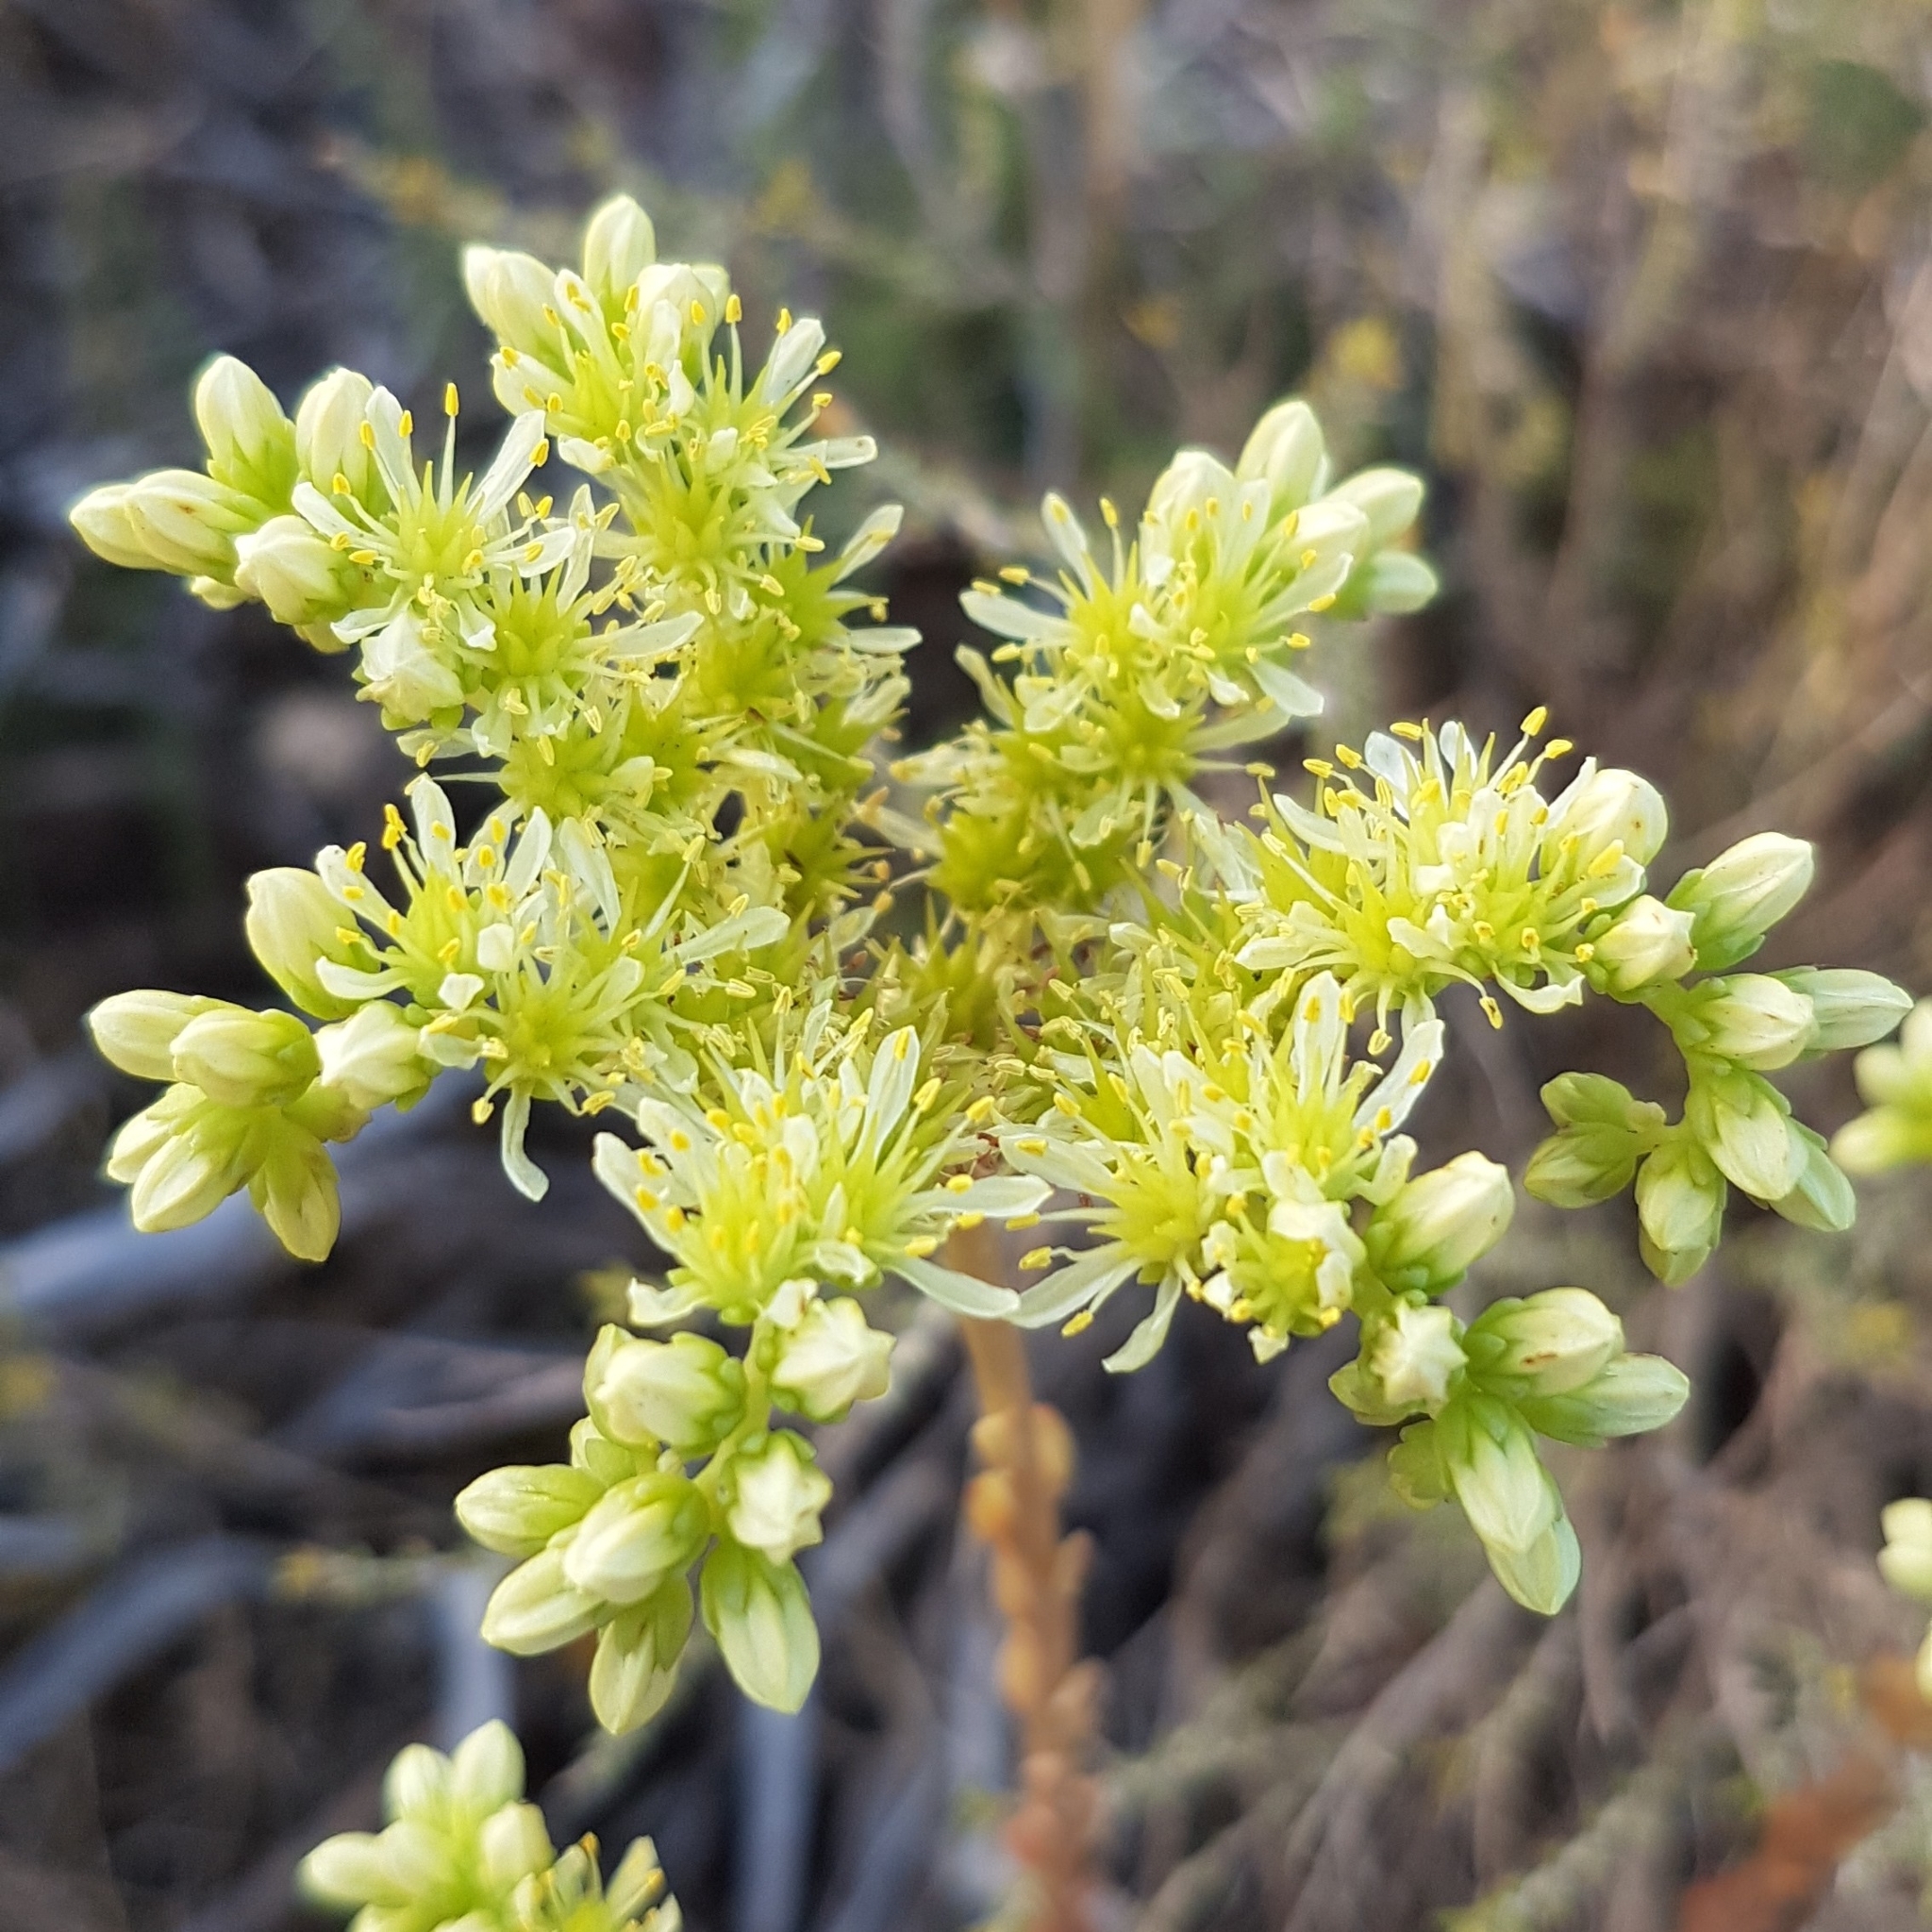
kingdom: Plantae
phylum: Tracheophyta
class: Magnoliopsida
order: Saxifragales
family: Crassulaceae
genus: Petrosedum
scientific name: Petrosedum sediforme
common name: Pale stonecrop
